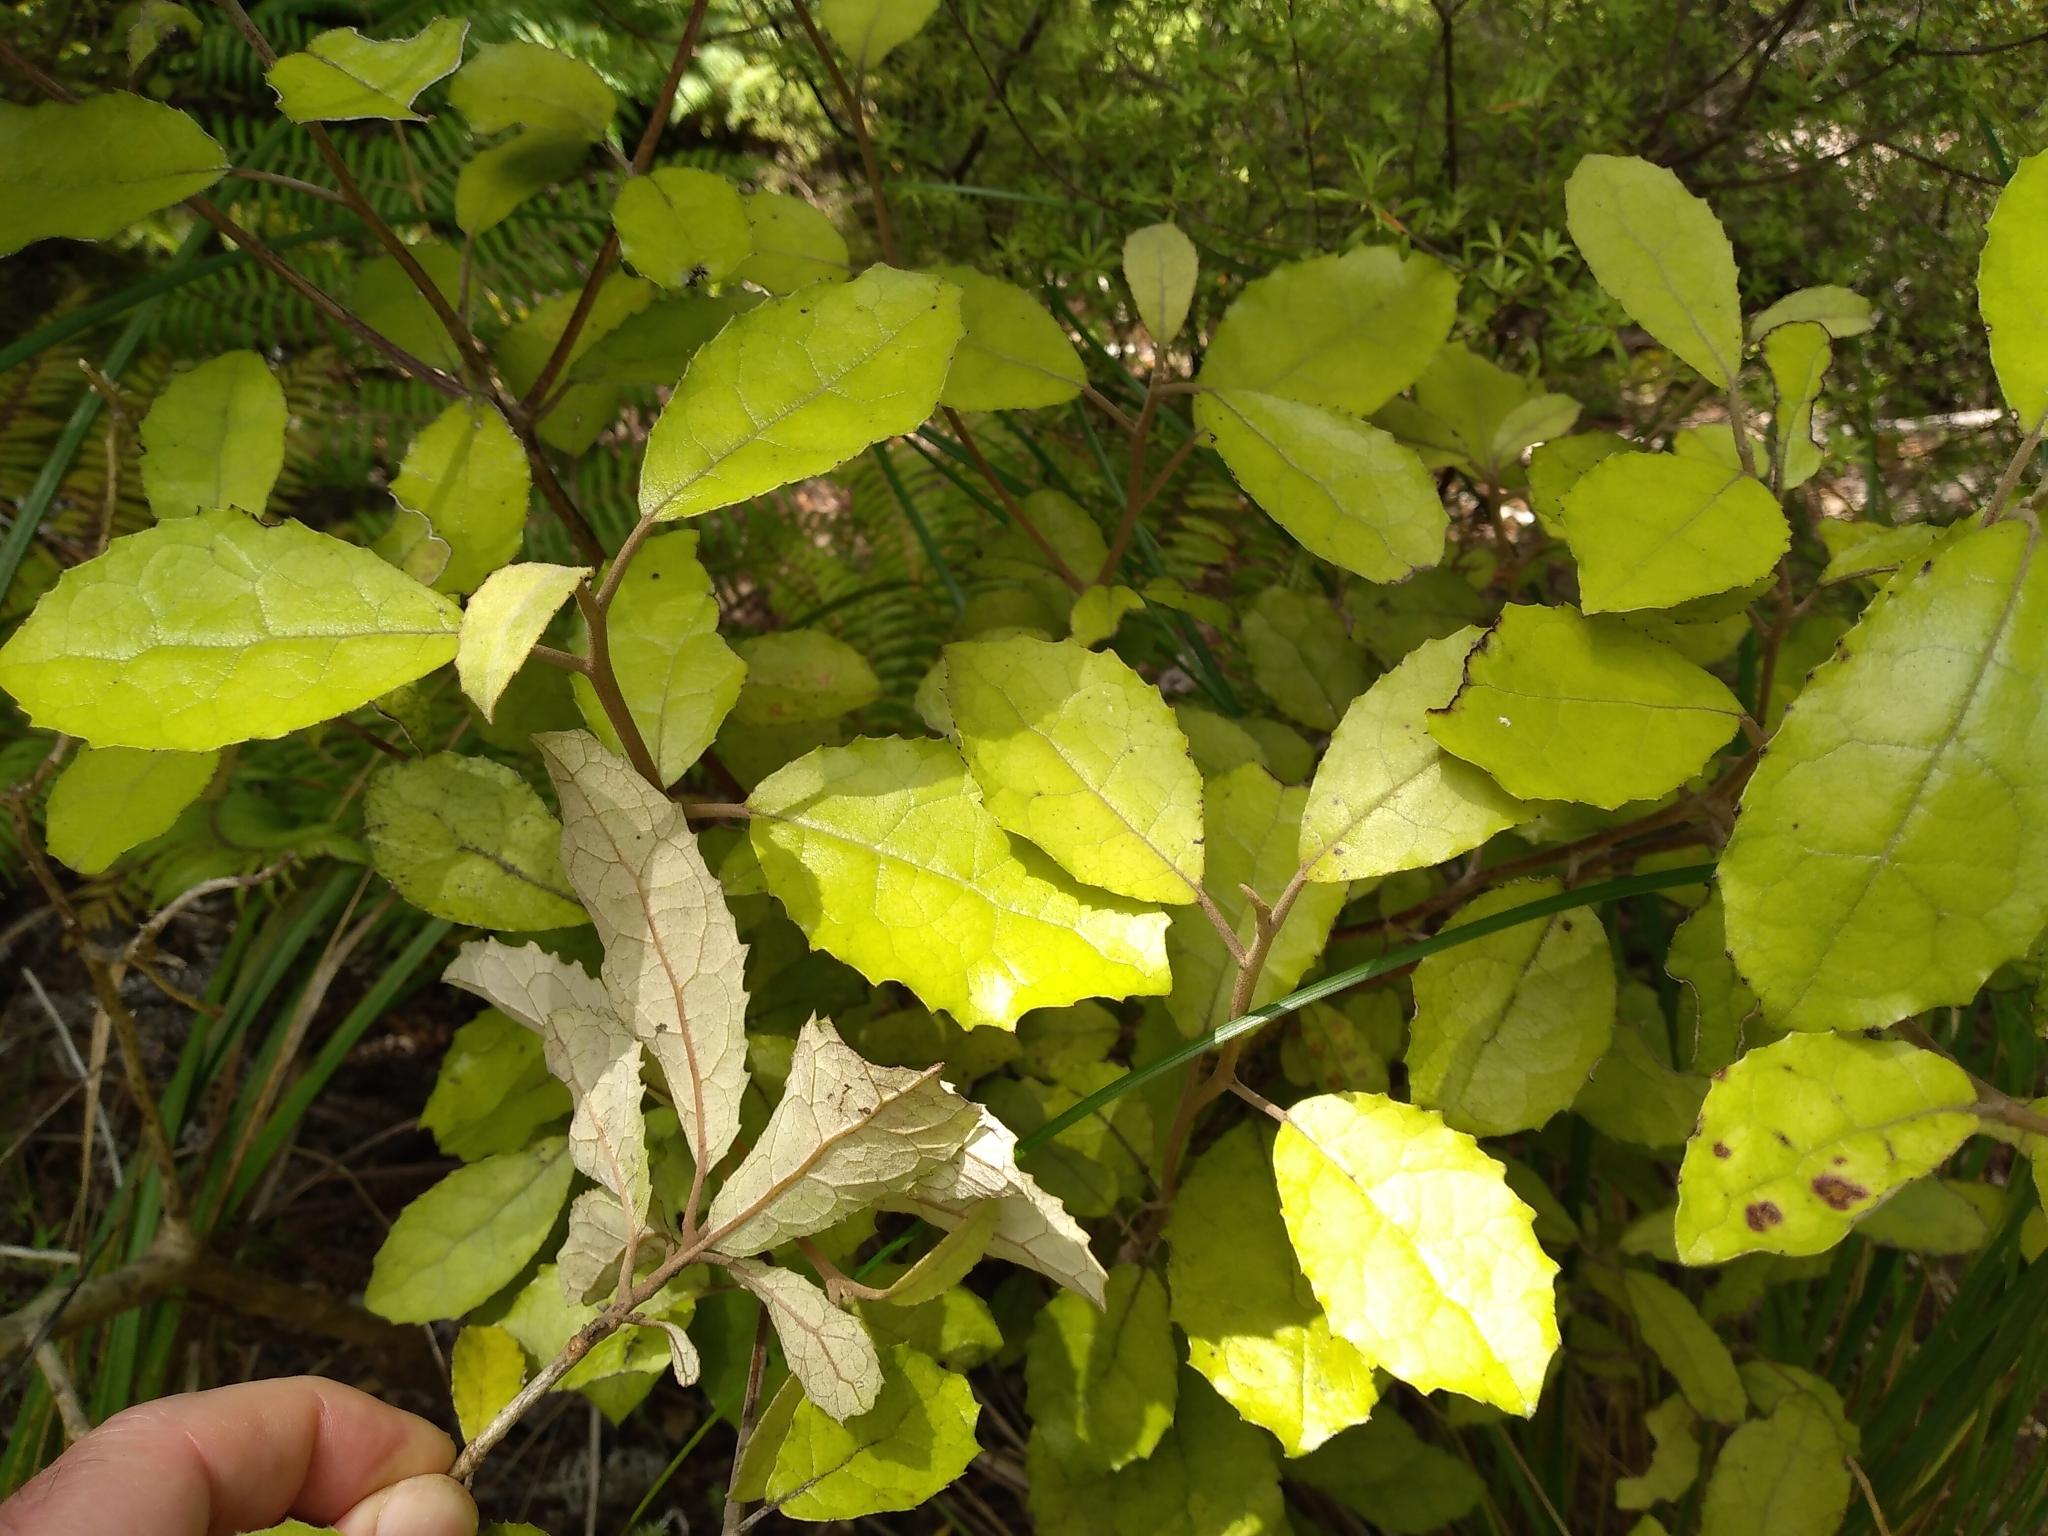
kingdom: Plantae
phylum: Tracheophyta
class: Magnoliopsida
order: Asterales
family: Asteraceae
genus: Olearia
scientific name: Olearia rani
